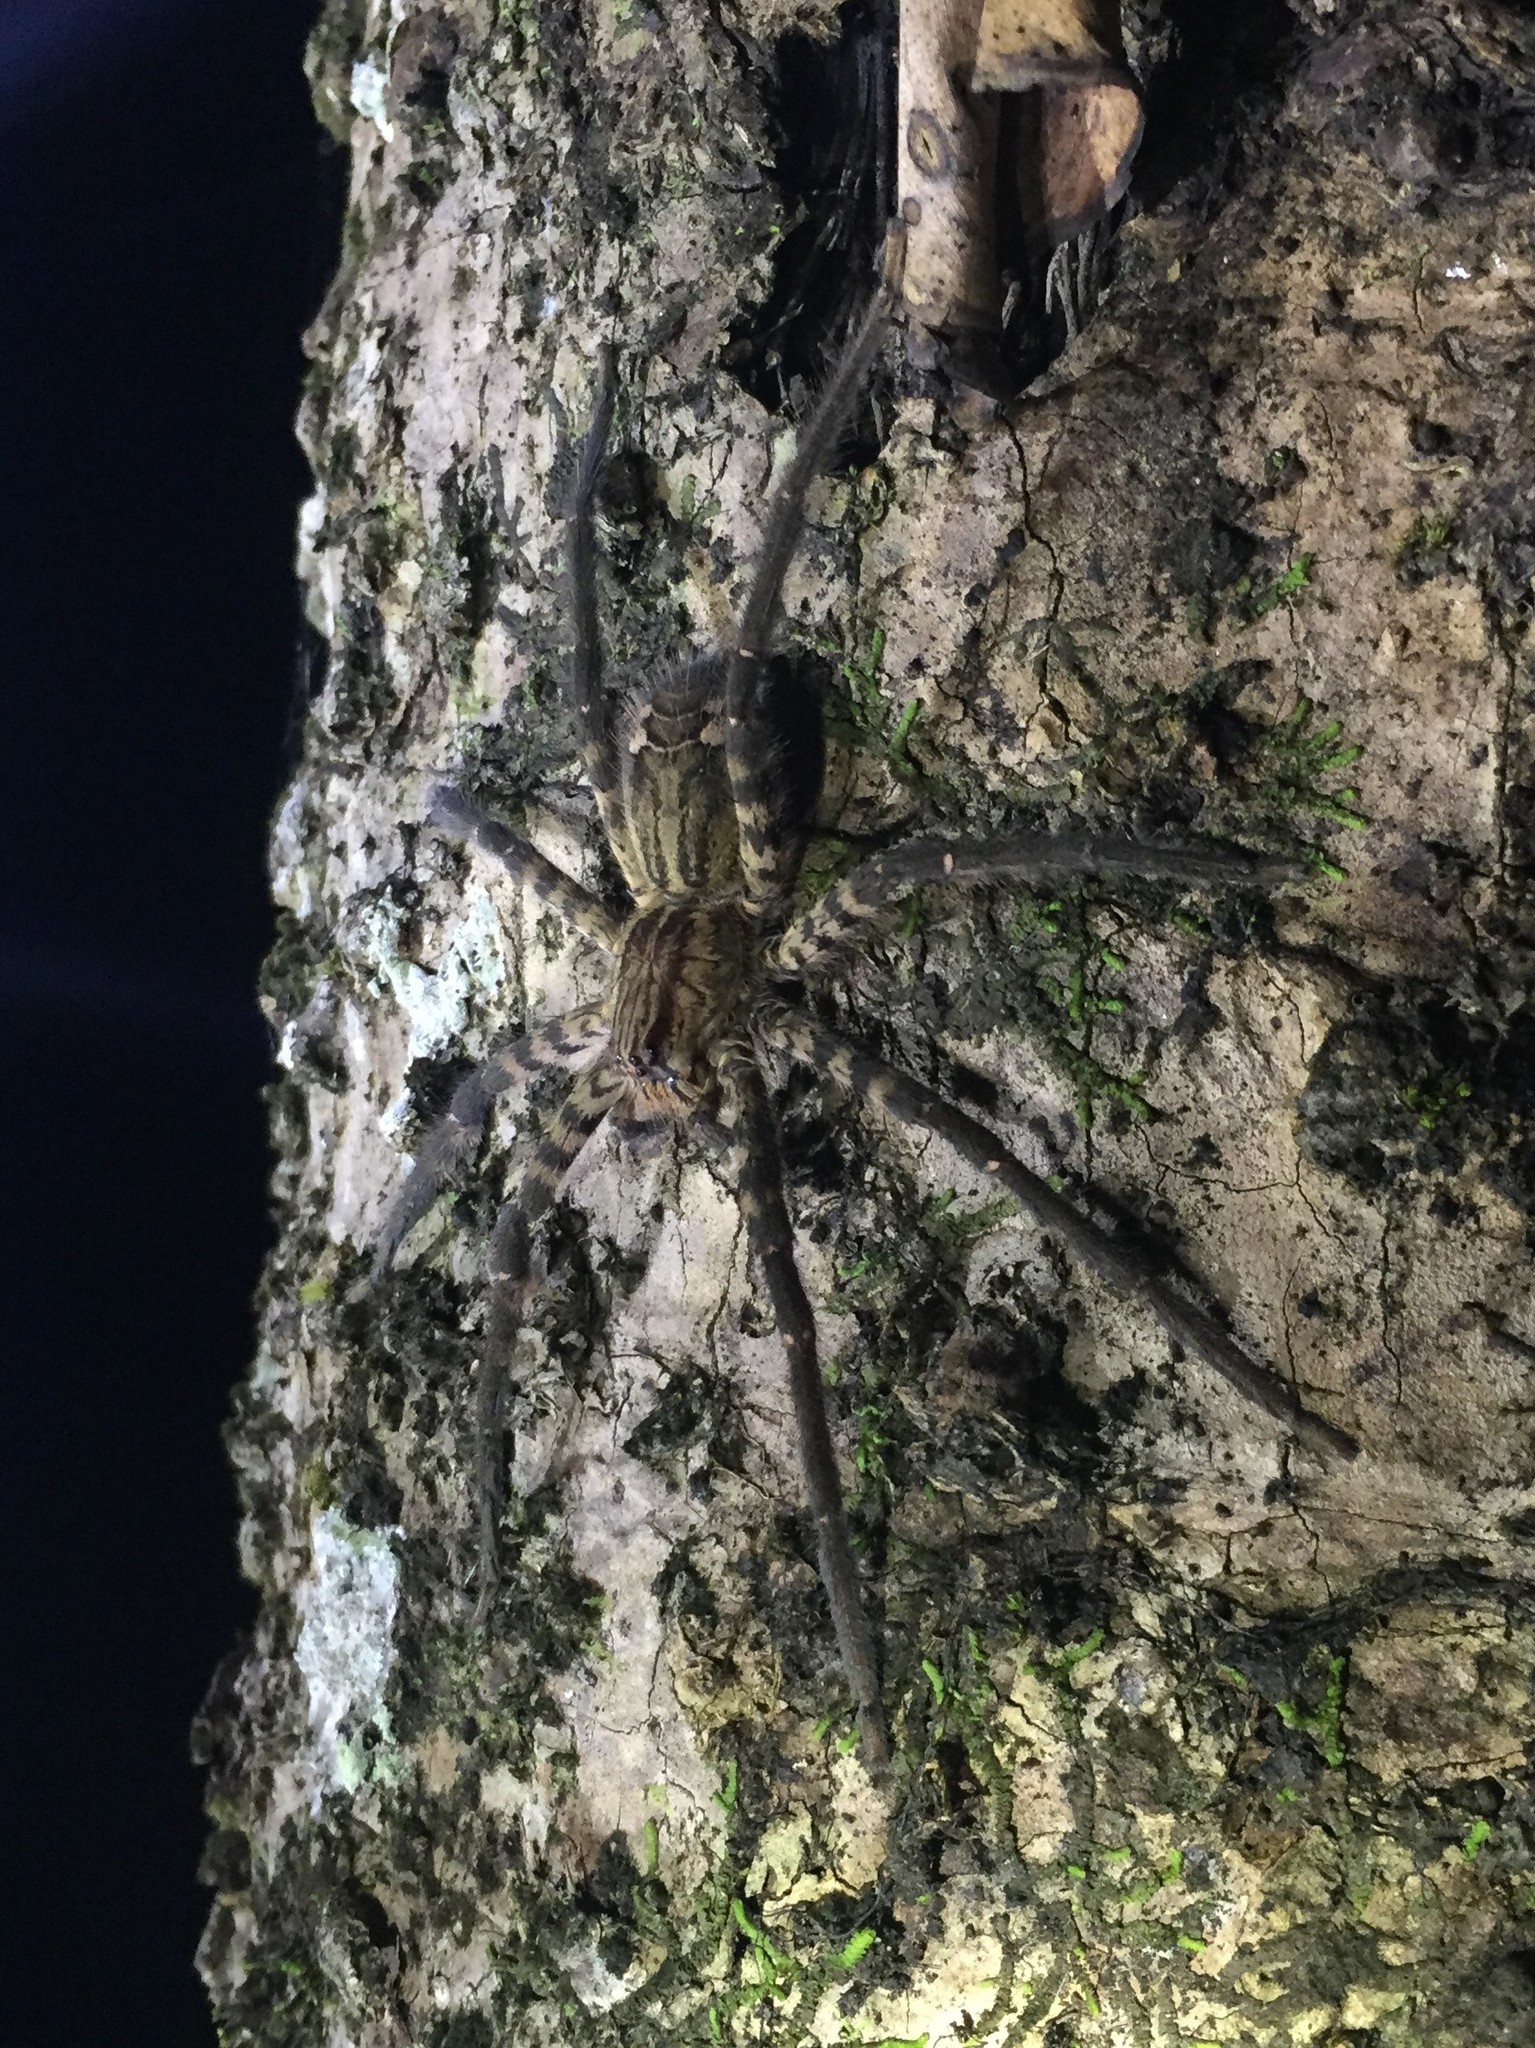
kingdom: Animalia
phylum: Arthropoda
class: Arachnida
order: Araneae
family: Trechaleidae
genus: Cupiennius
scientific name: Cupiennius salei
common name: Wandering spiders
